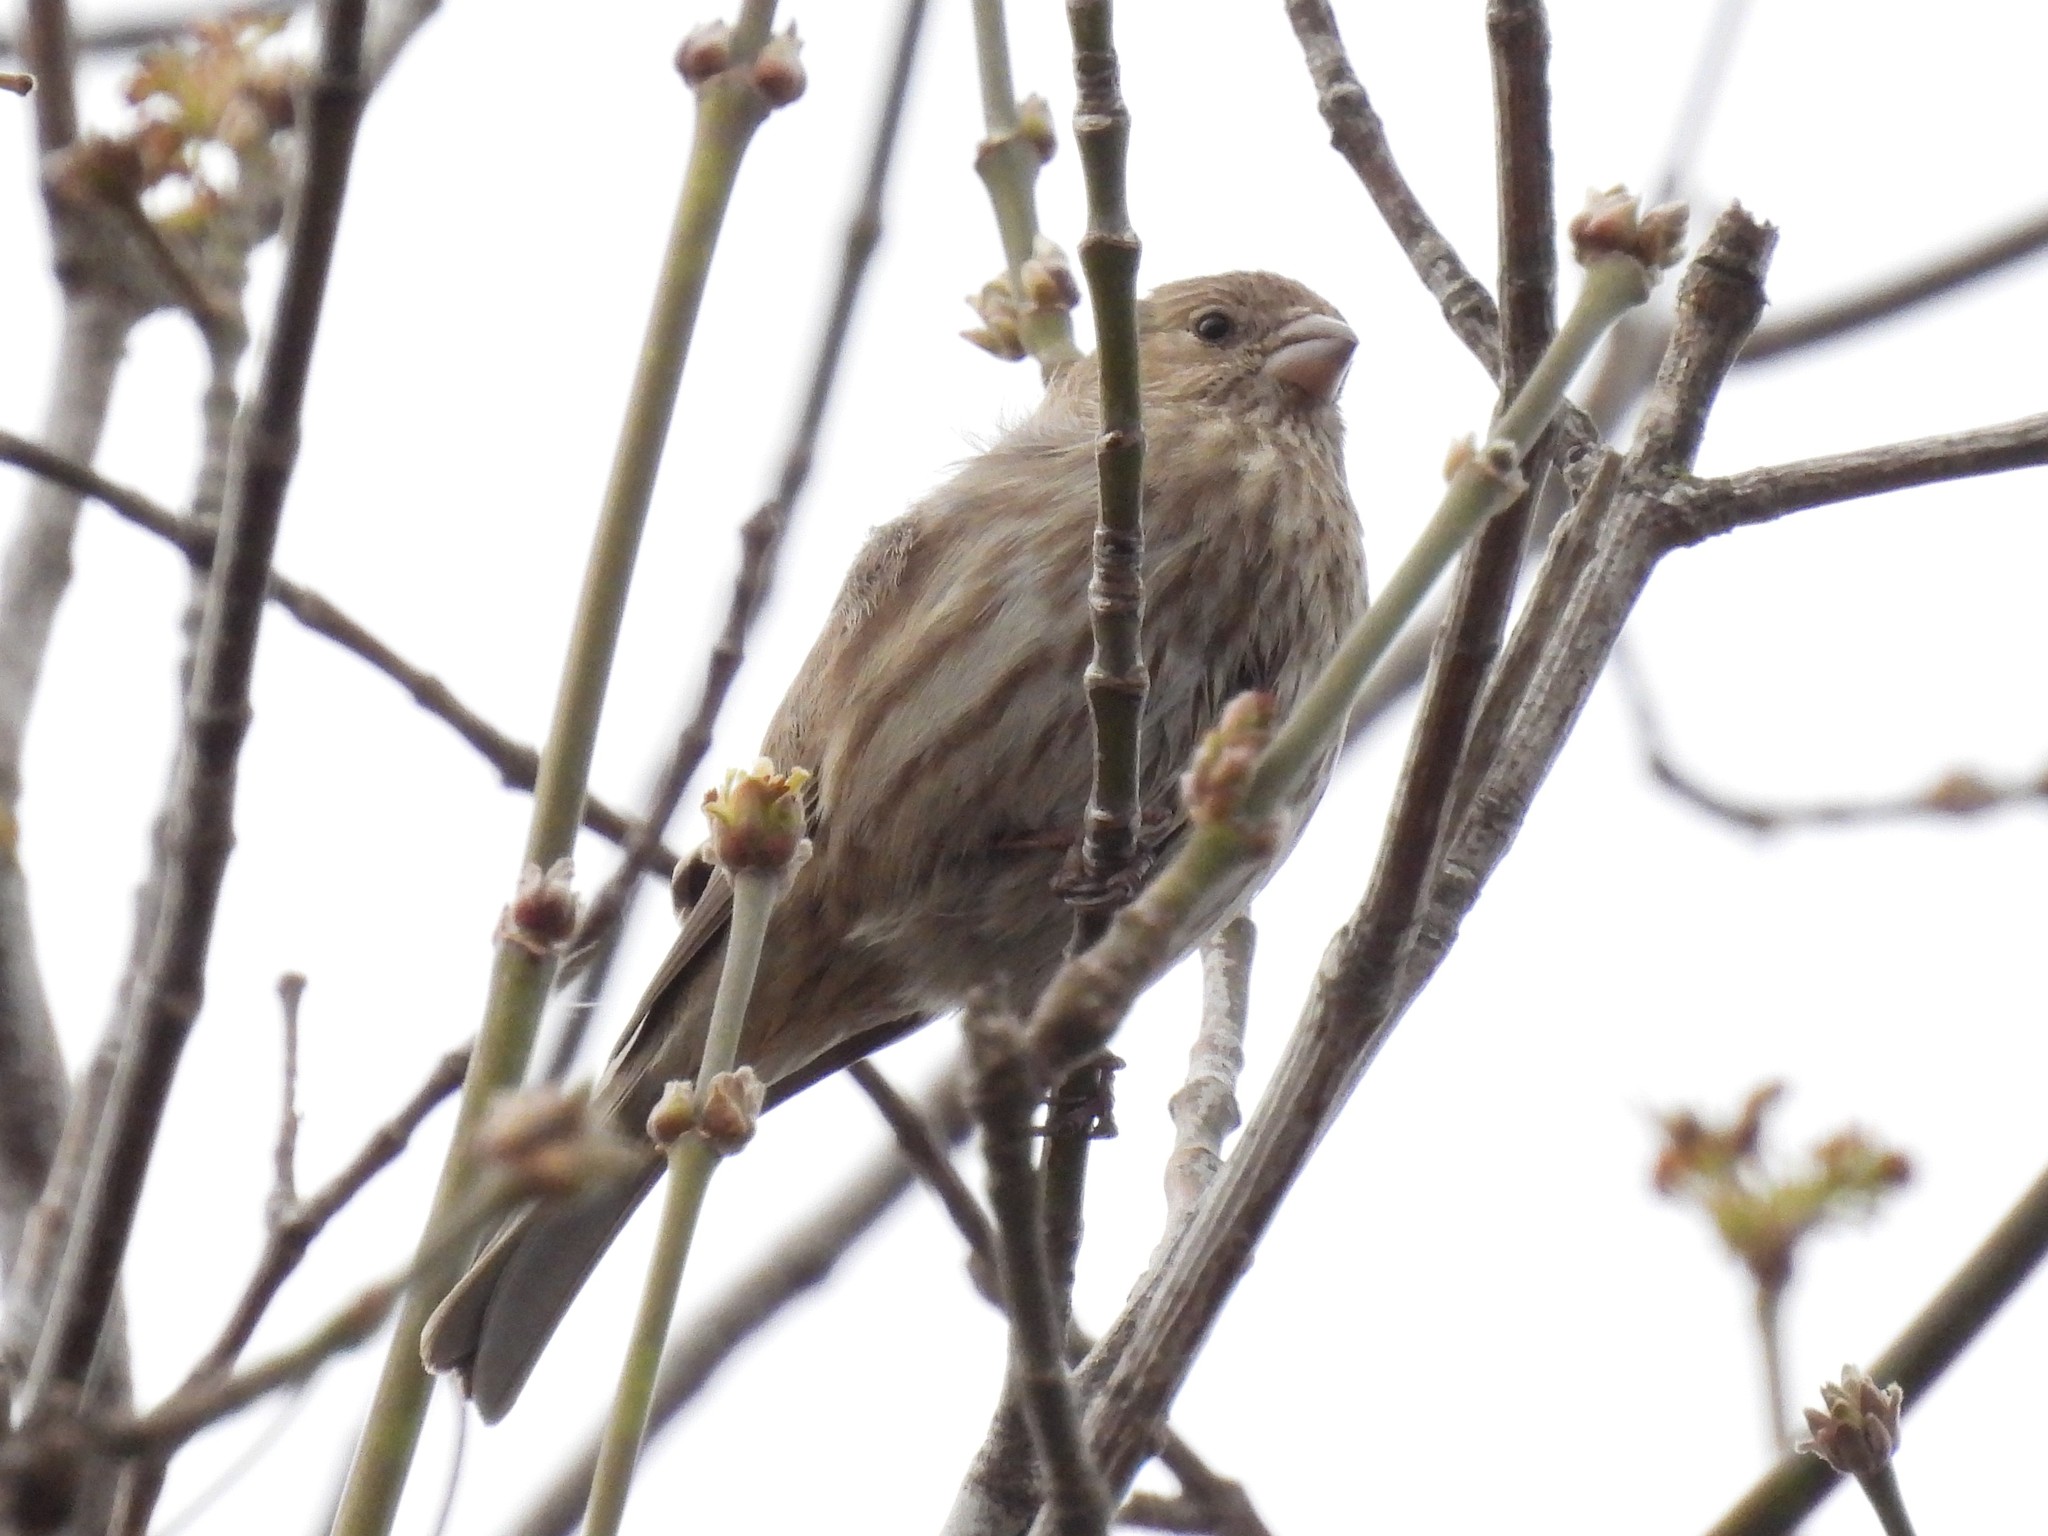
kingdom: Animalia
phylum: Chordata
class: Aves
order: Passeriformes
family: Fringillidae
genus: Haemorhous
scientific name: Haemorhous mexicanus
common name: House finch
